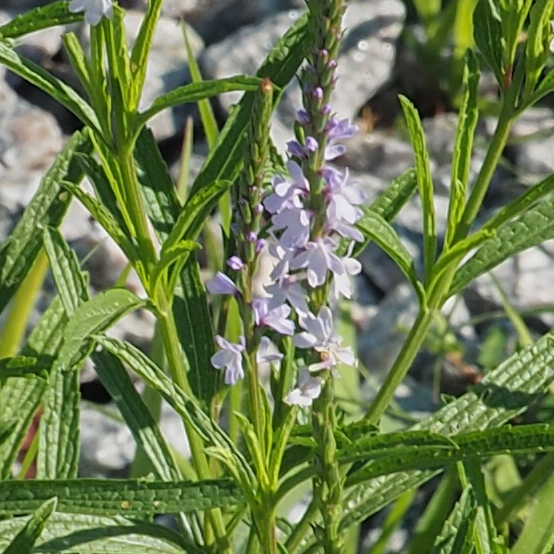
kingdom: Plantae
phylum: Tracheophyta
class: Magnoliopsida
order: Lamiales
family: Verbenaceae
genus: Verbena
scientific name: Verbena simplex
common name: Narrow-leaf vervain
